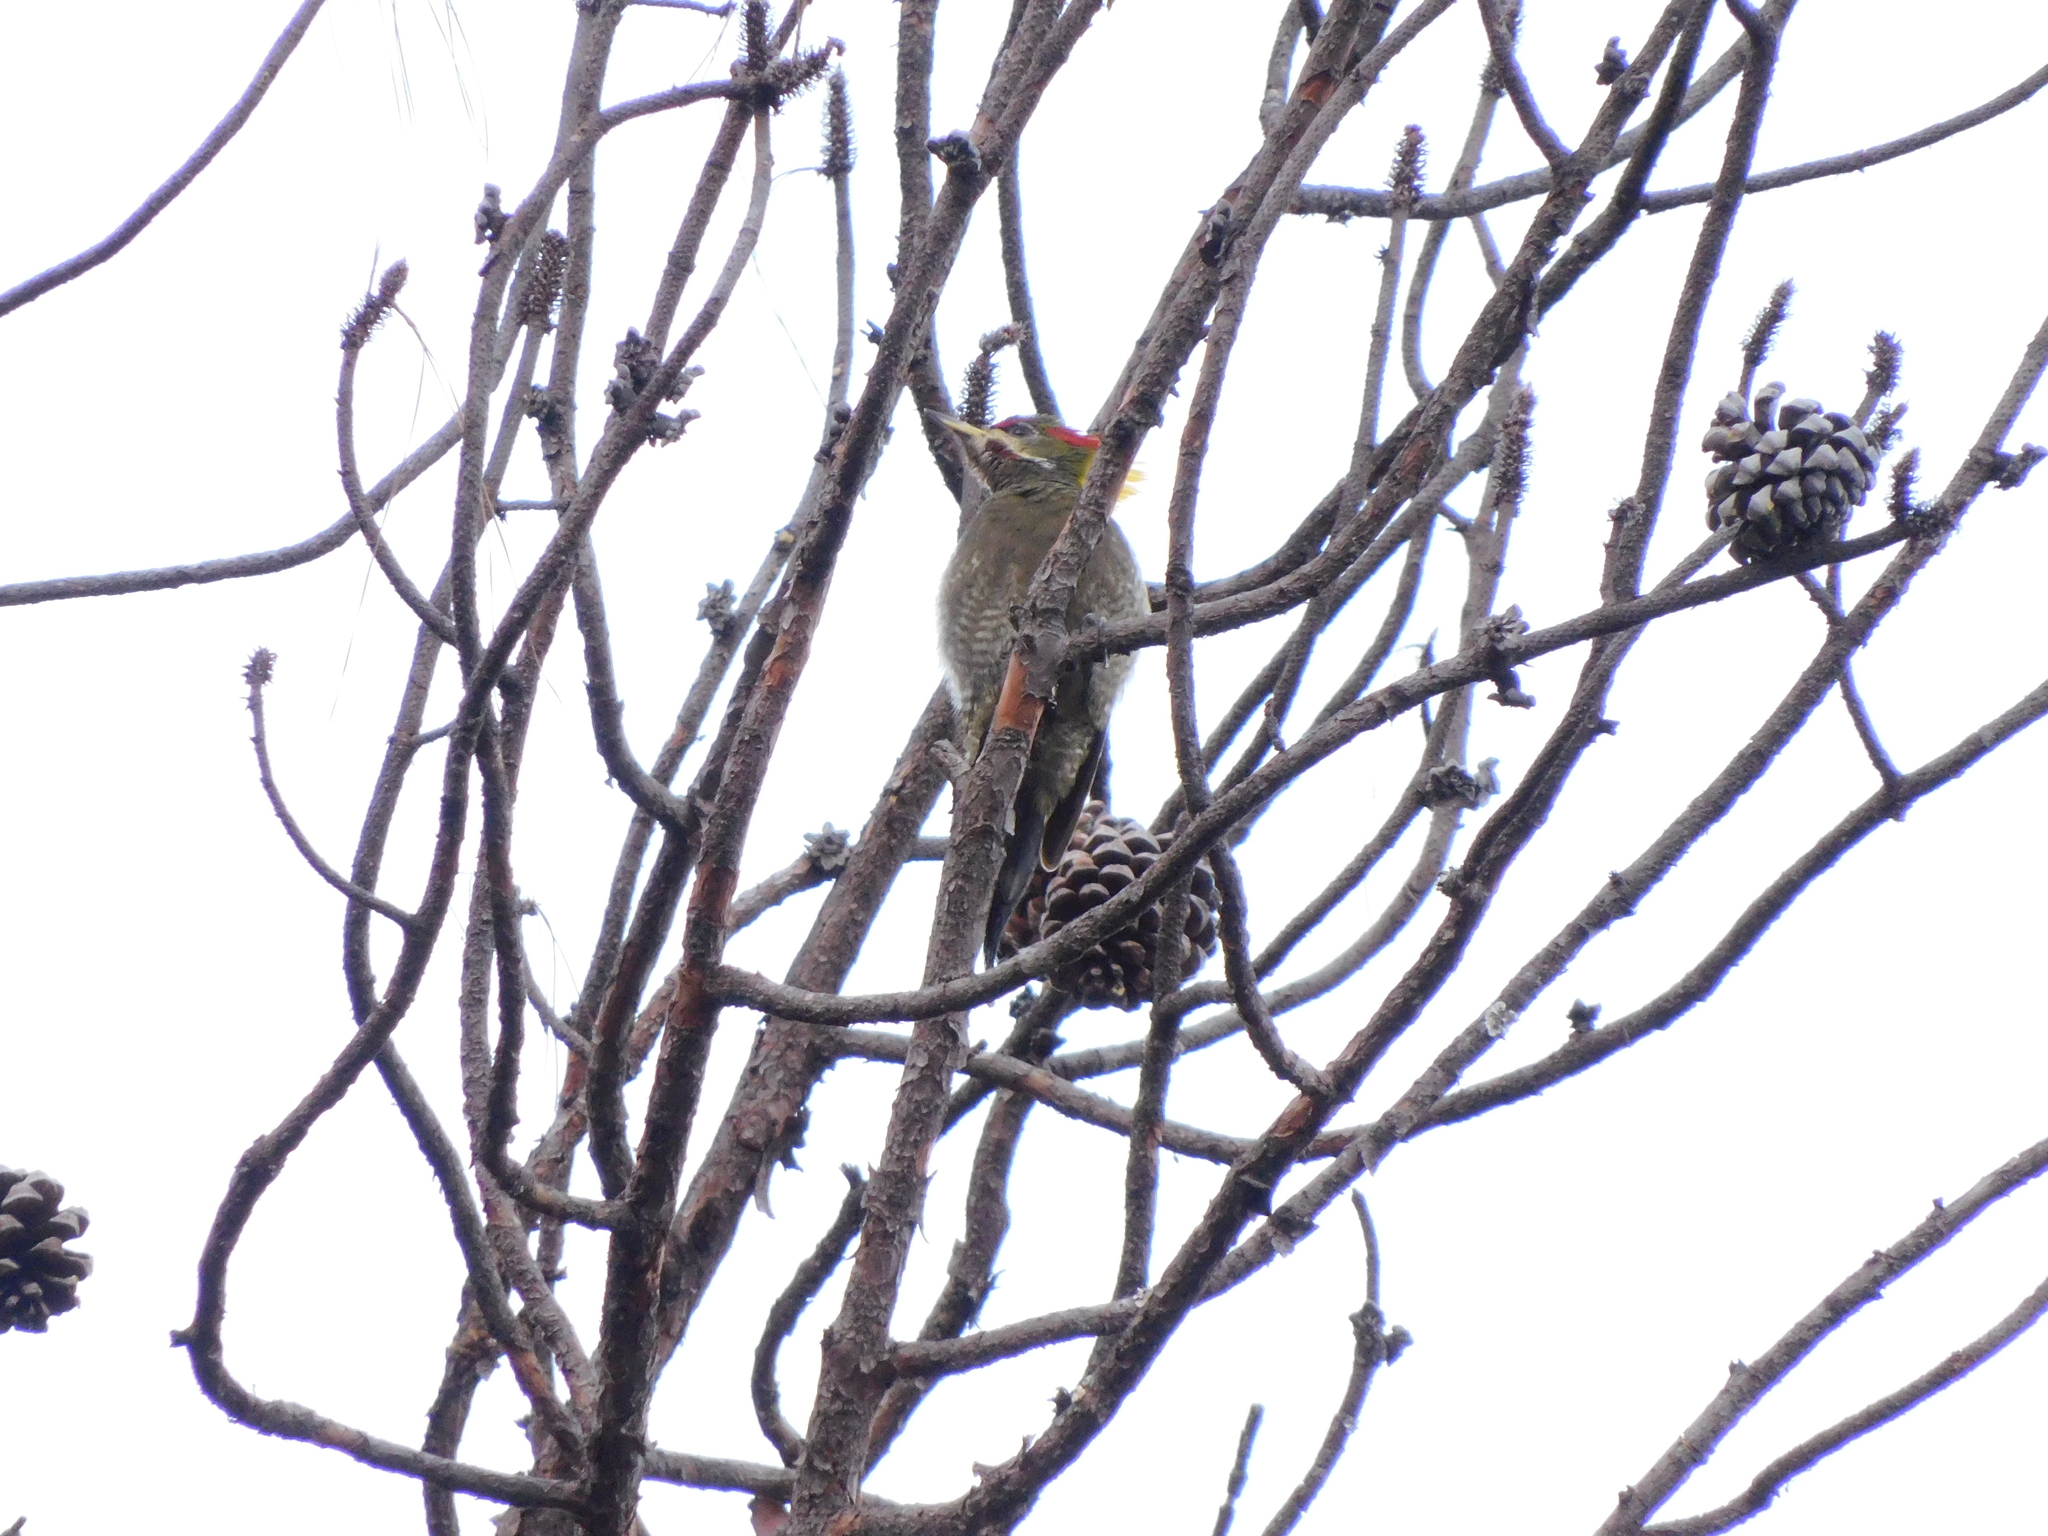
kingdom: Animalia
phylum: Chordata
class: Aves
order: Piciformes
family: Picidae
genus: Picus
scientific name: Picus chlorolophus
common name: Lesser yellownape
